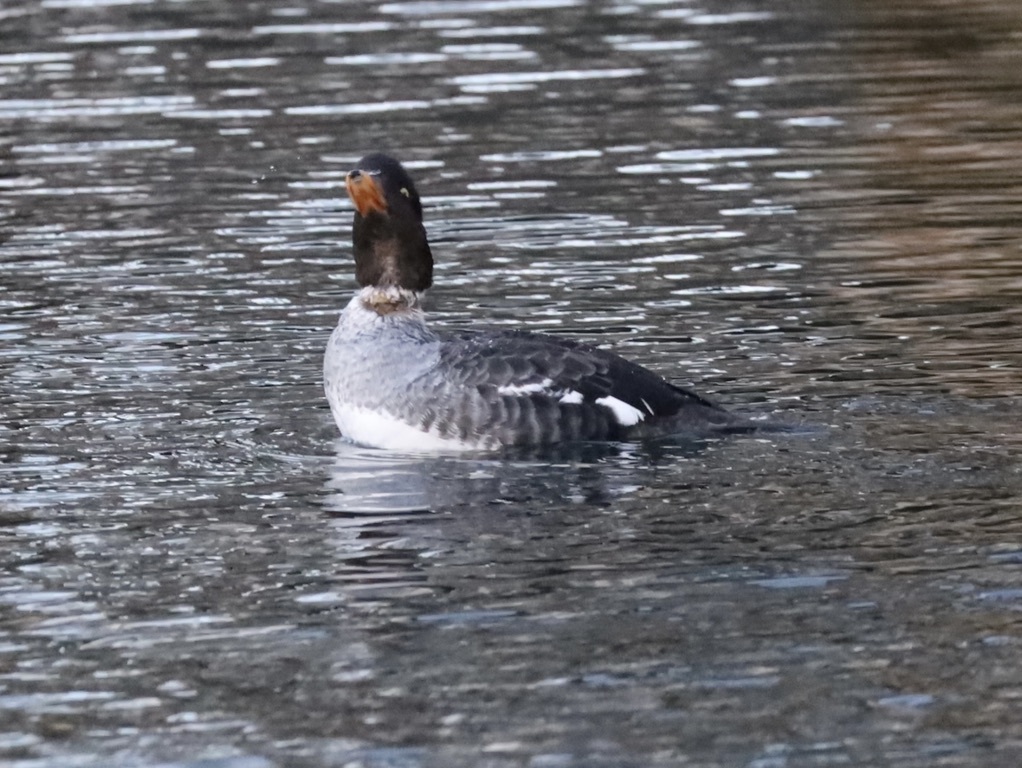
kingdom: Animalia
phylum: Chordata
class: Aves
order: Anseriformes
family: Anatidae
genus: Bucephala
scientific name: Bucephala islandica
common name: Barrow's goldeneye
